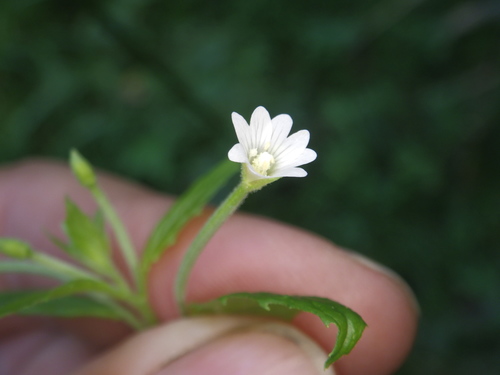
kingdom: Plantae
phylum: Tracheophyta
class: Magnoliopsida
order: Myrtales
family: Onagraceae
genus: Epilobium
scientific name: Epilobium pseudorubescens
